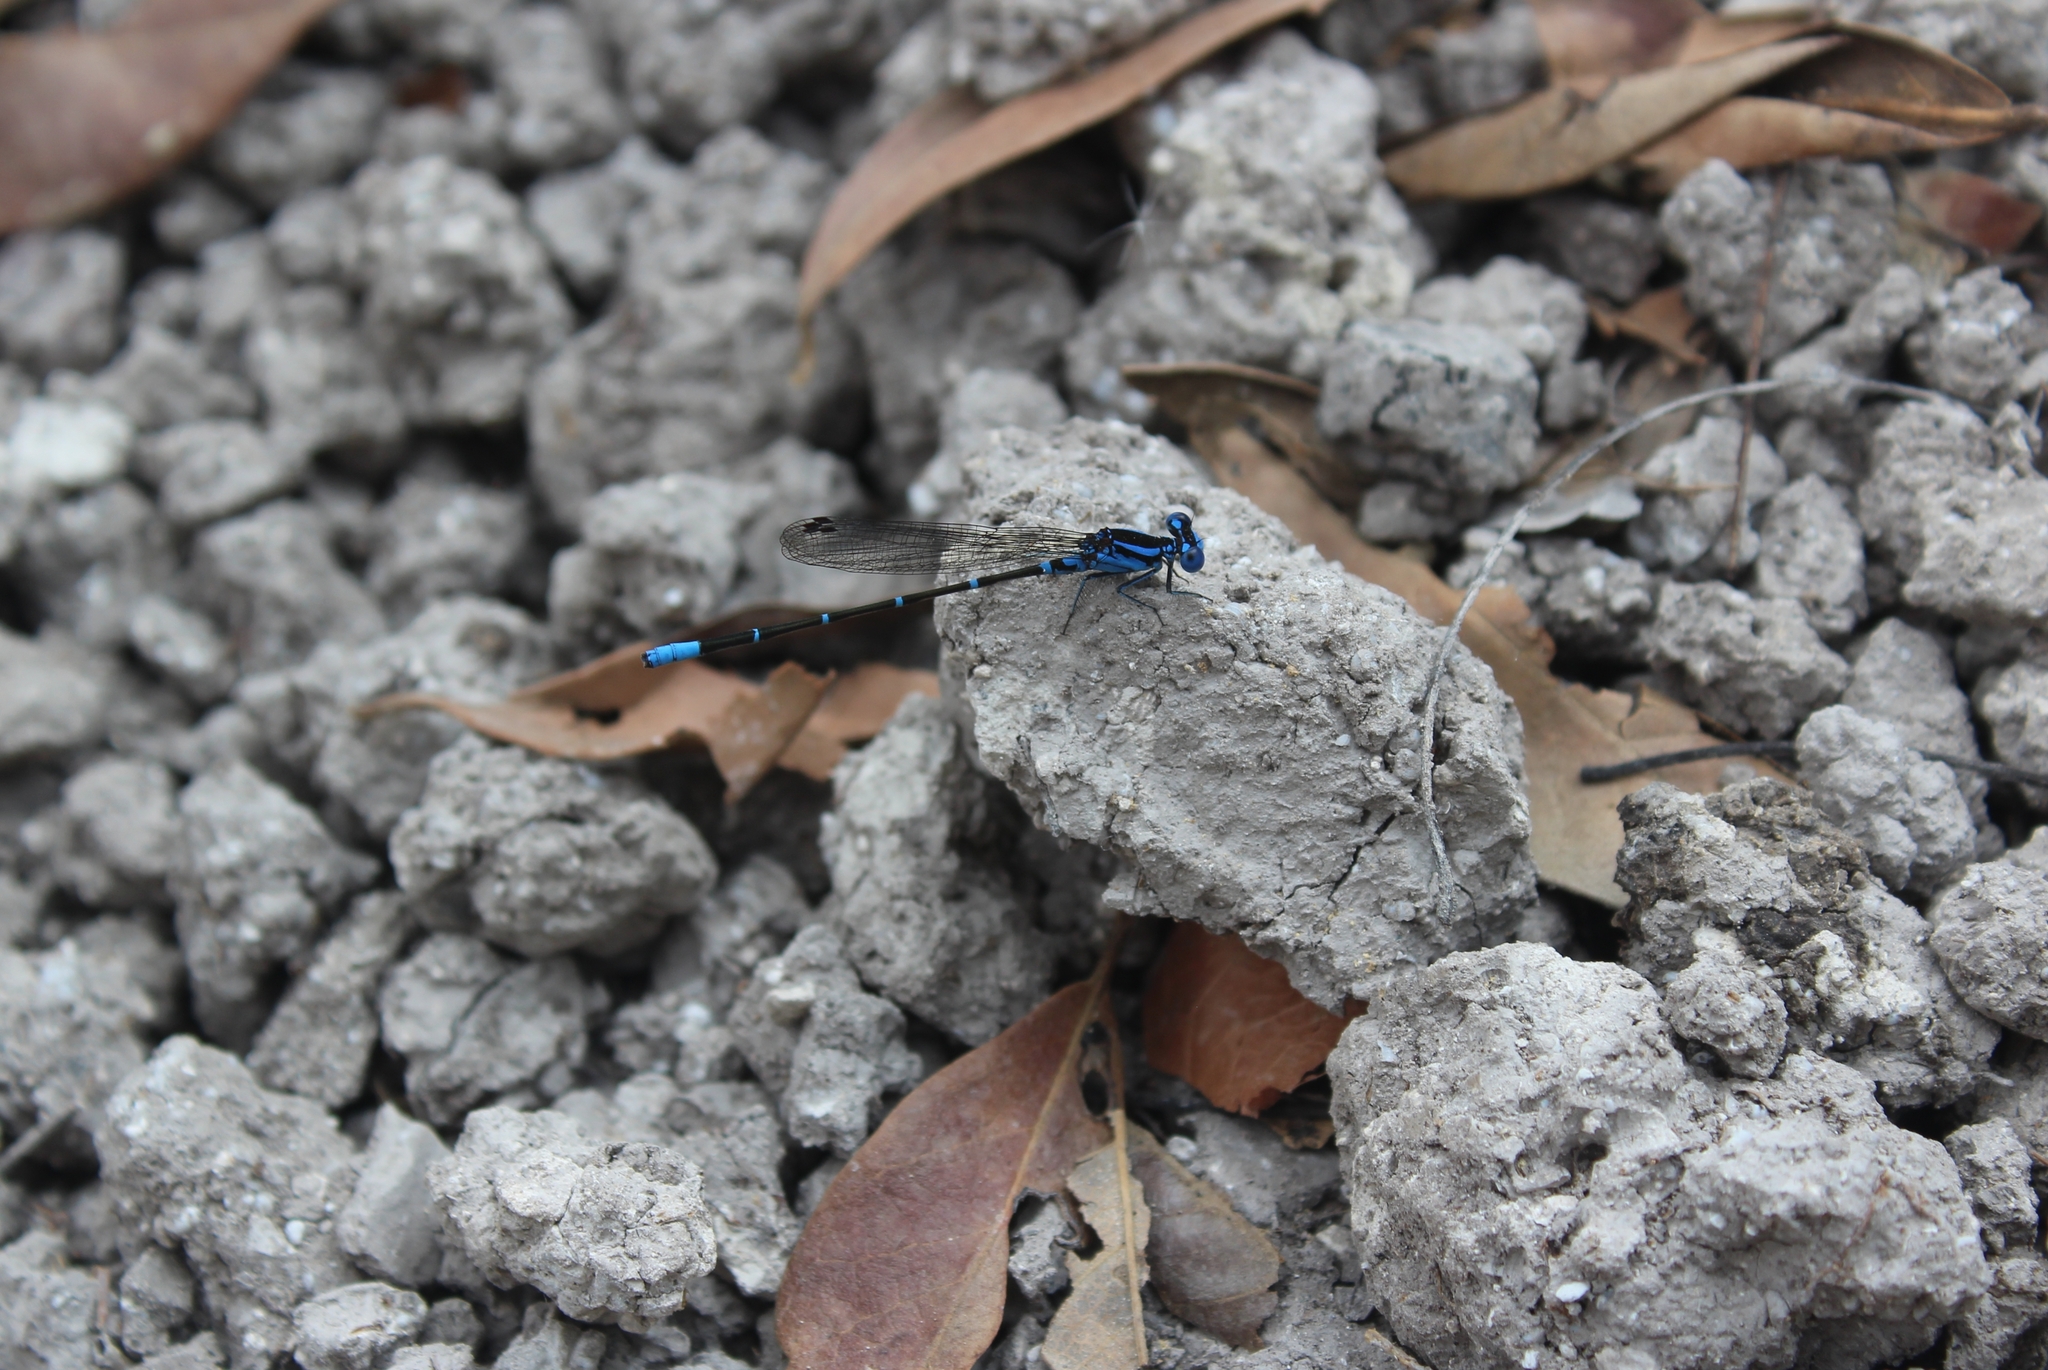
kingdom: Animalia
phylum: Arthropoda
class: Insecta
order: Odonata
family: Coenagrionidae
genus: Argia
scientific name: Argia gaumeri
